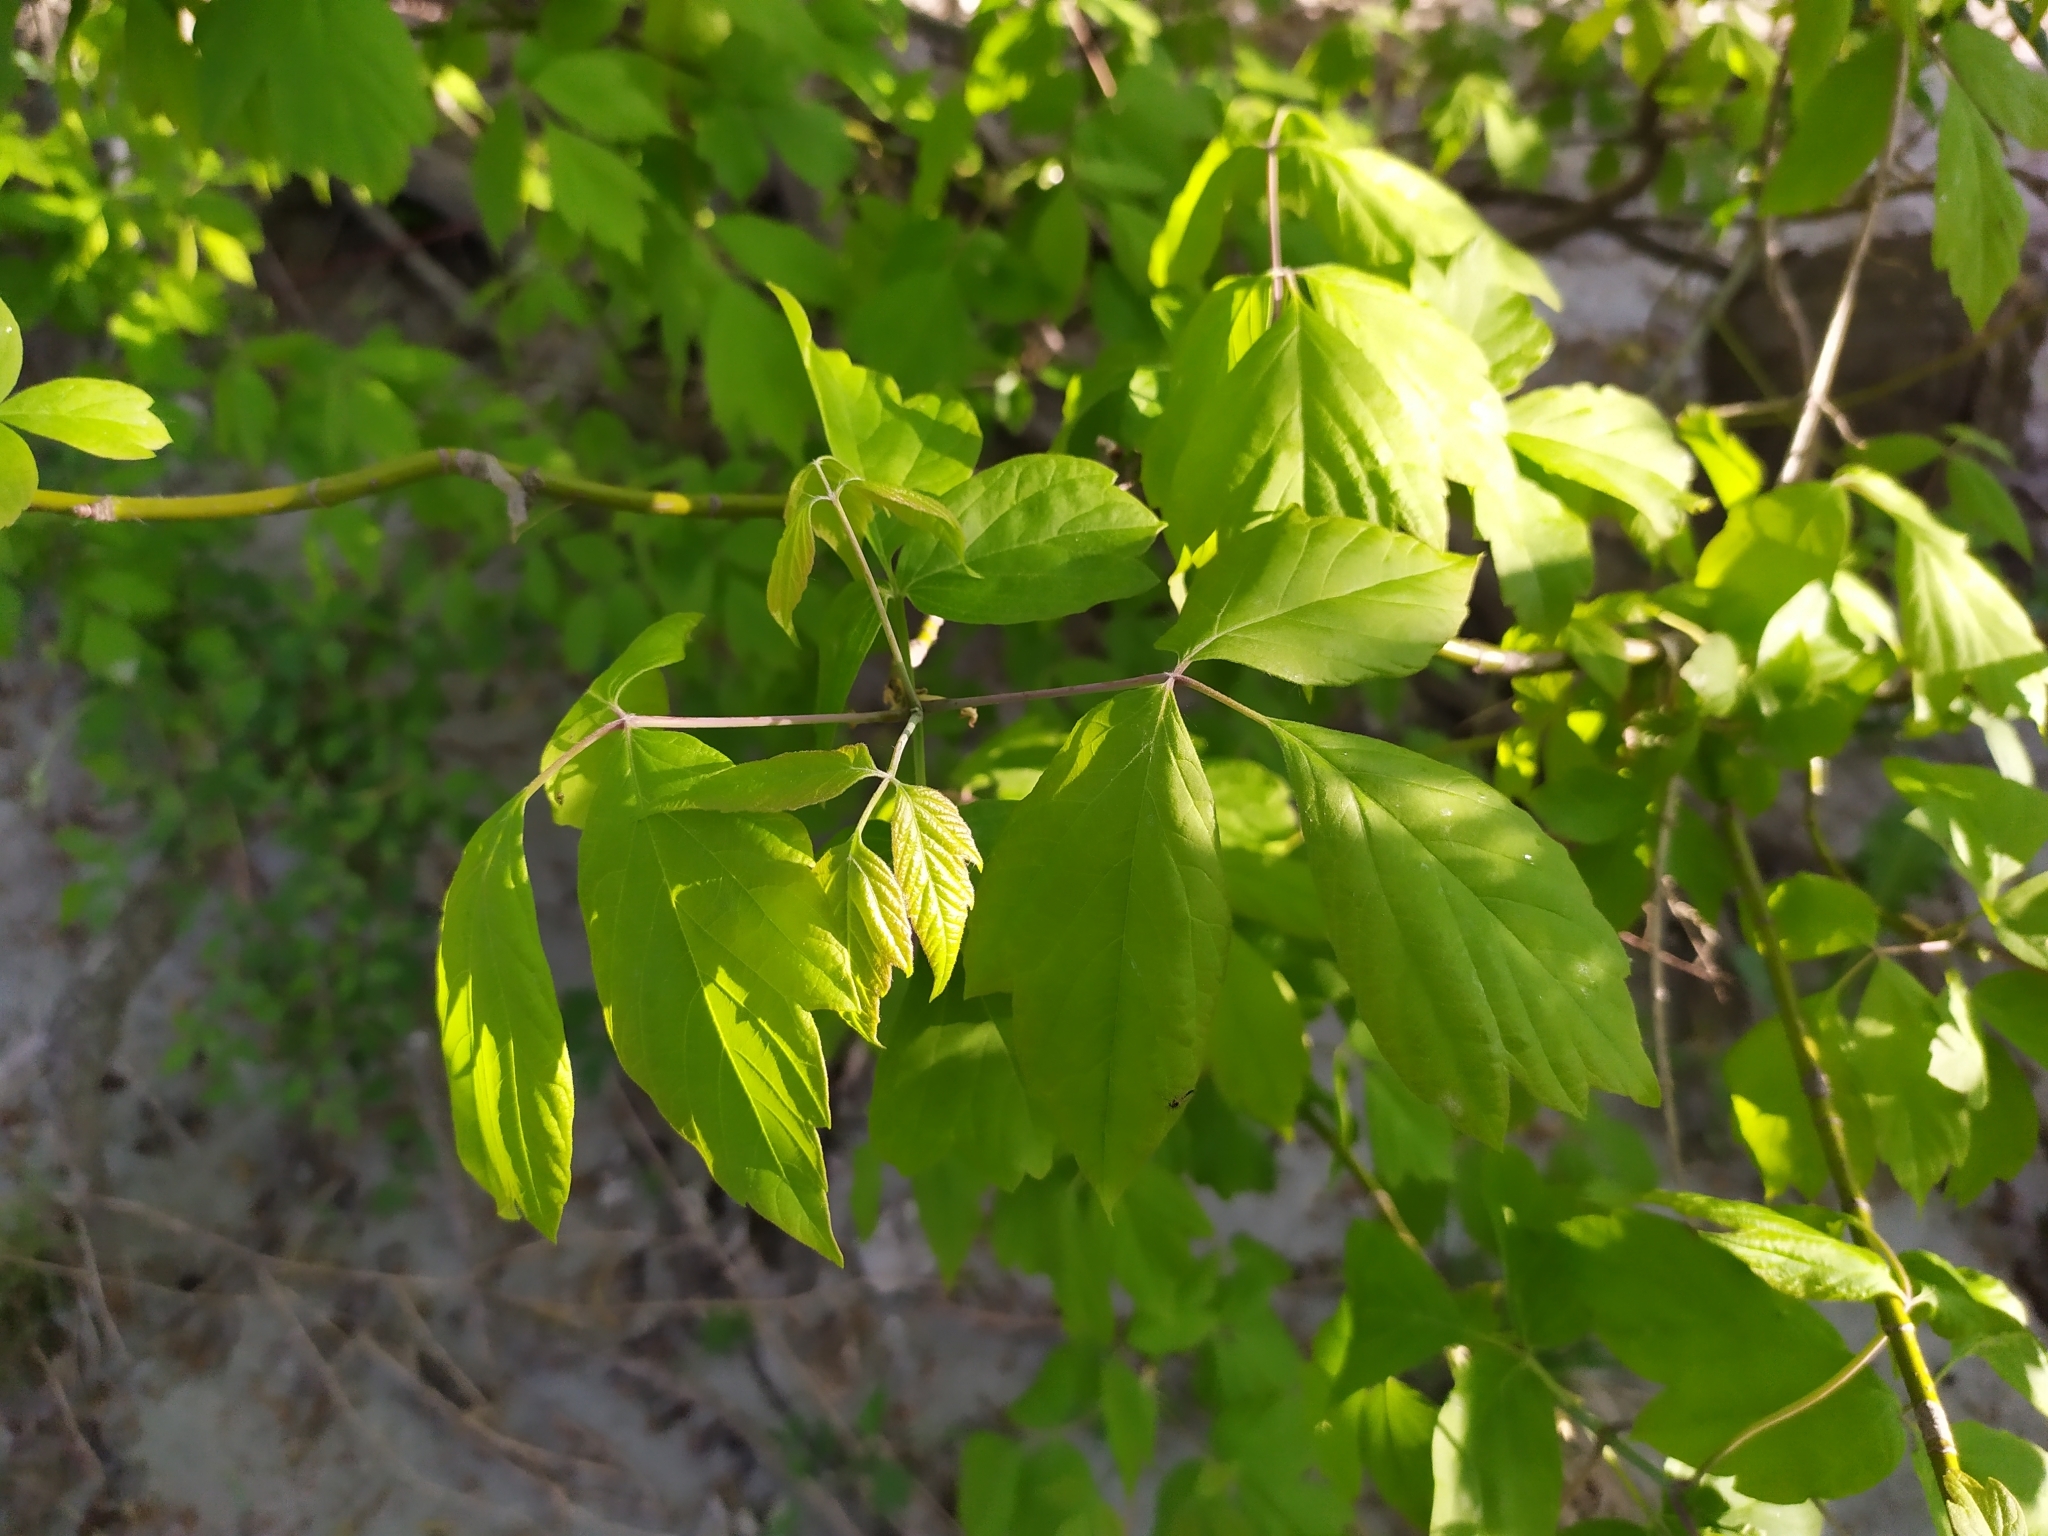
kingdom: Plantae
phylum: Tracheophyta
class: Magnoliopsida
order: Sapindales
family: Sapindaceae
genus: Acer
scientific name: Acer negundo
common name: Ashleaf maple
